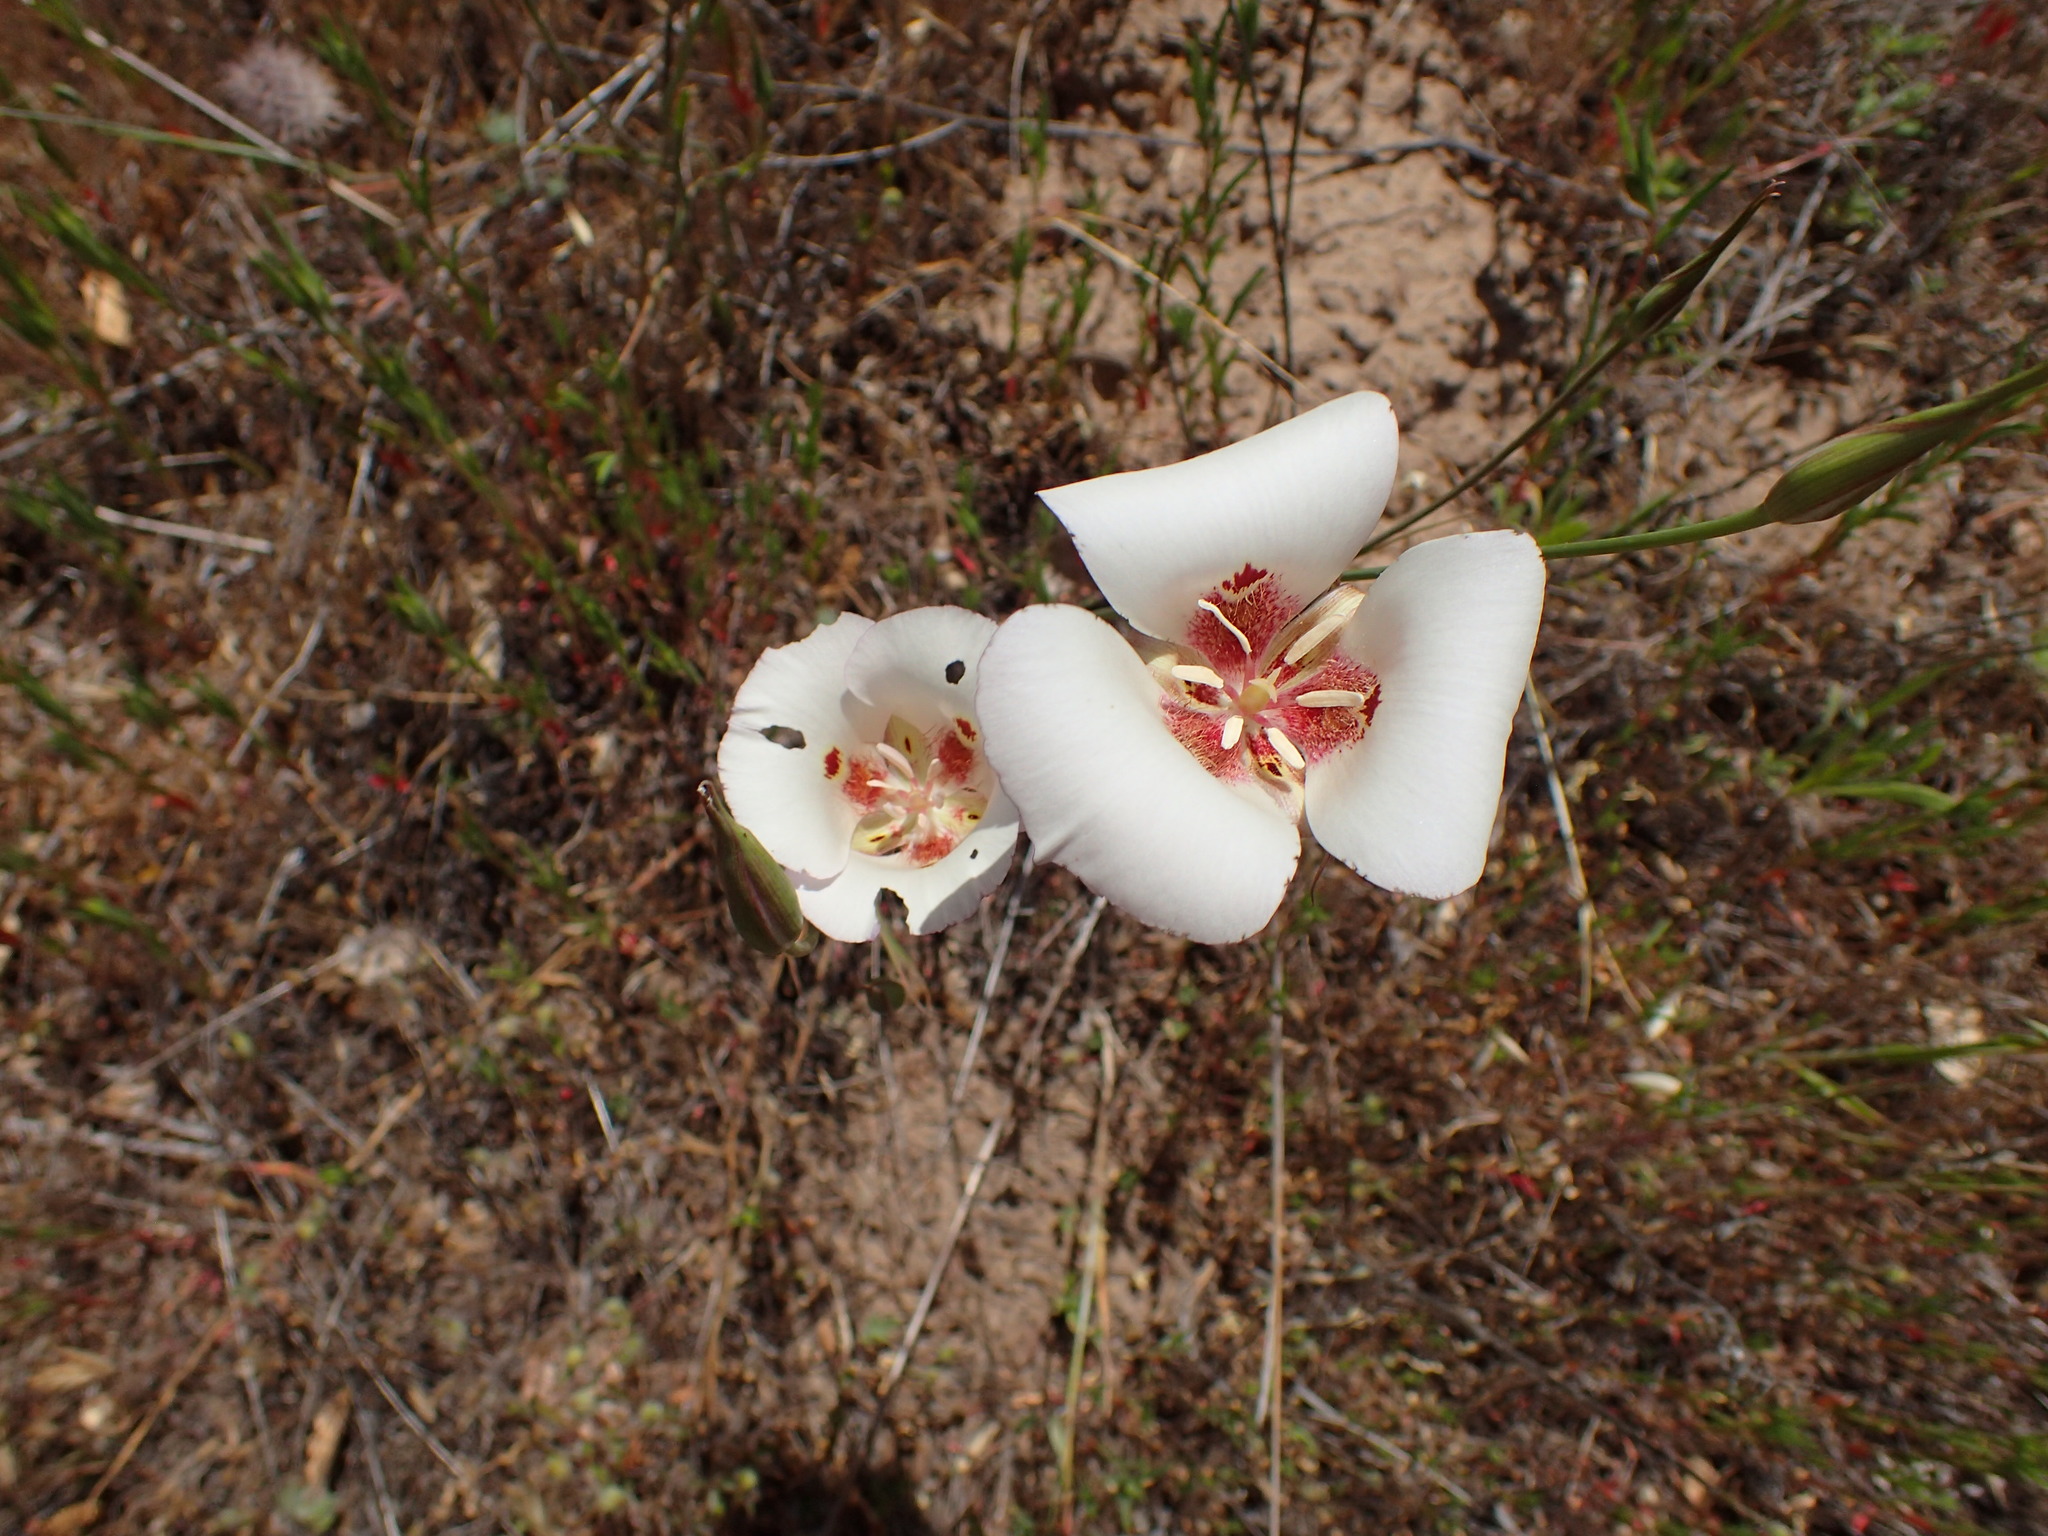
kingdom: Plantae
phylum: Tracheophyta
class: Liliopsida
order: Liliales
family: Liliaceae
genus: Calochortus
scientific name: Calochortus venustus
